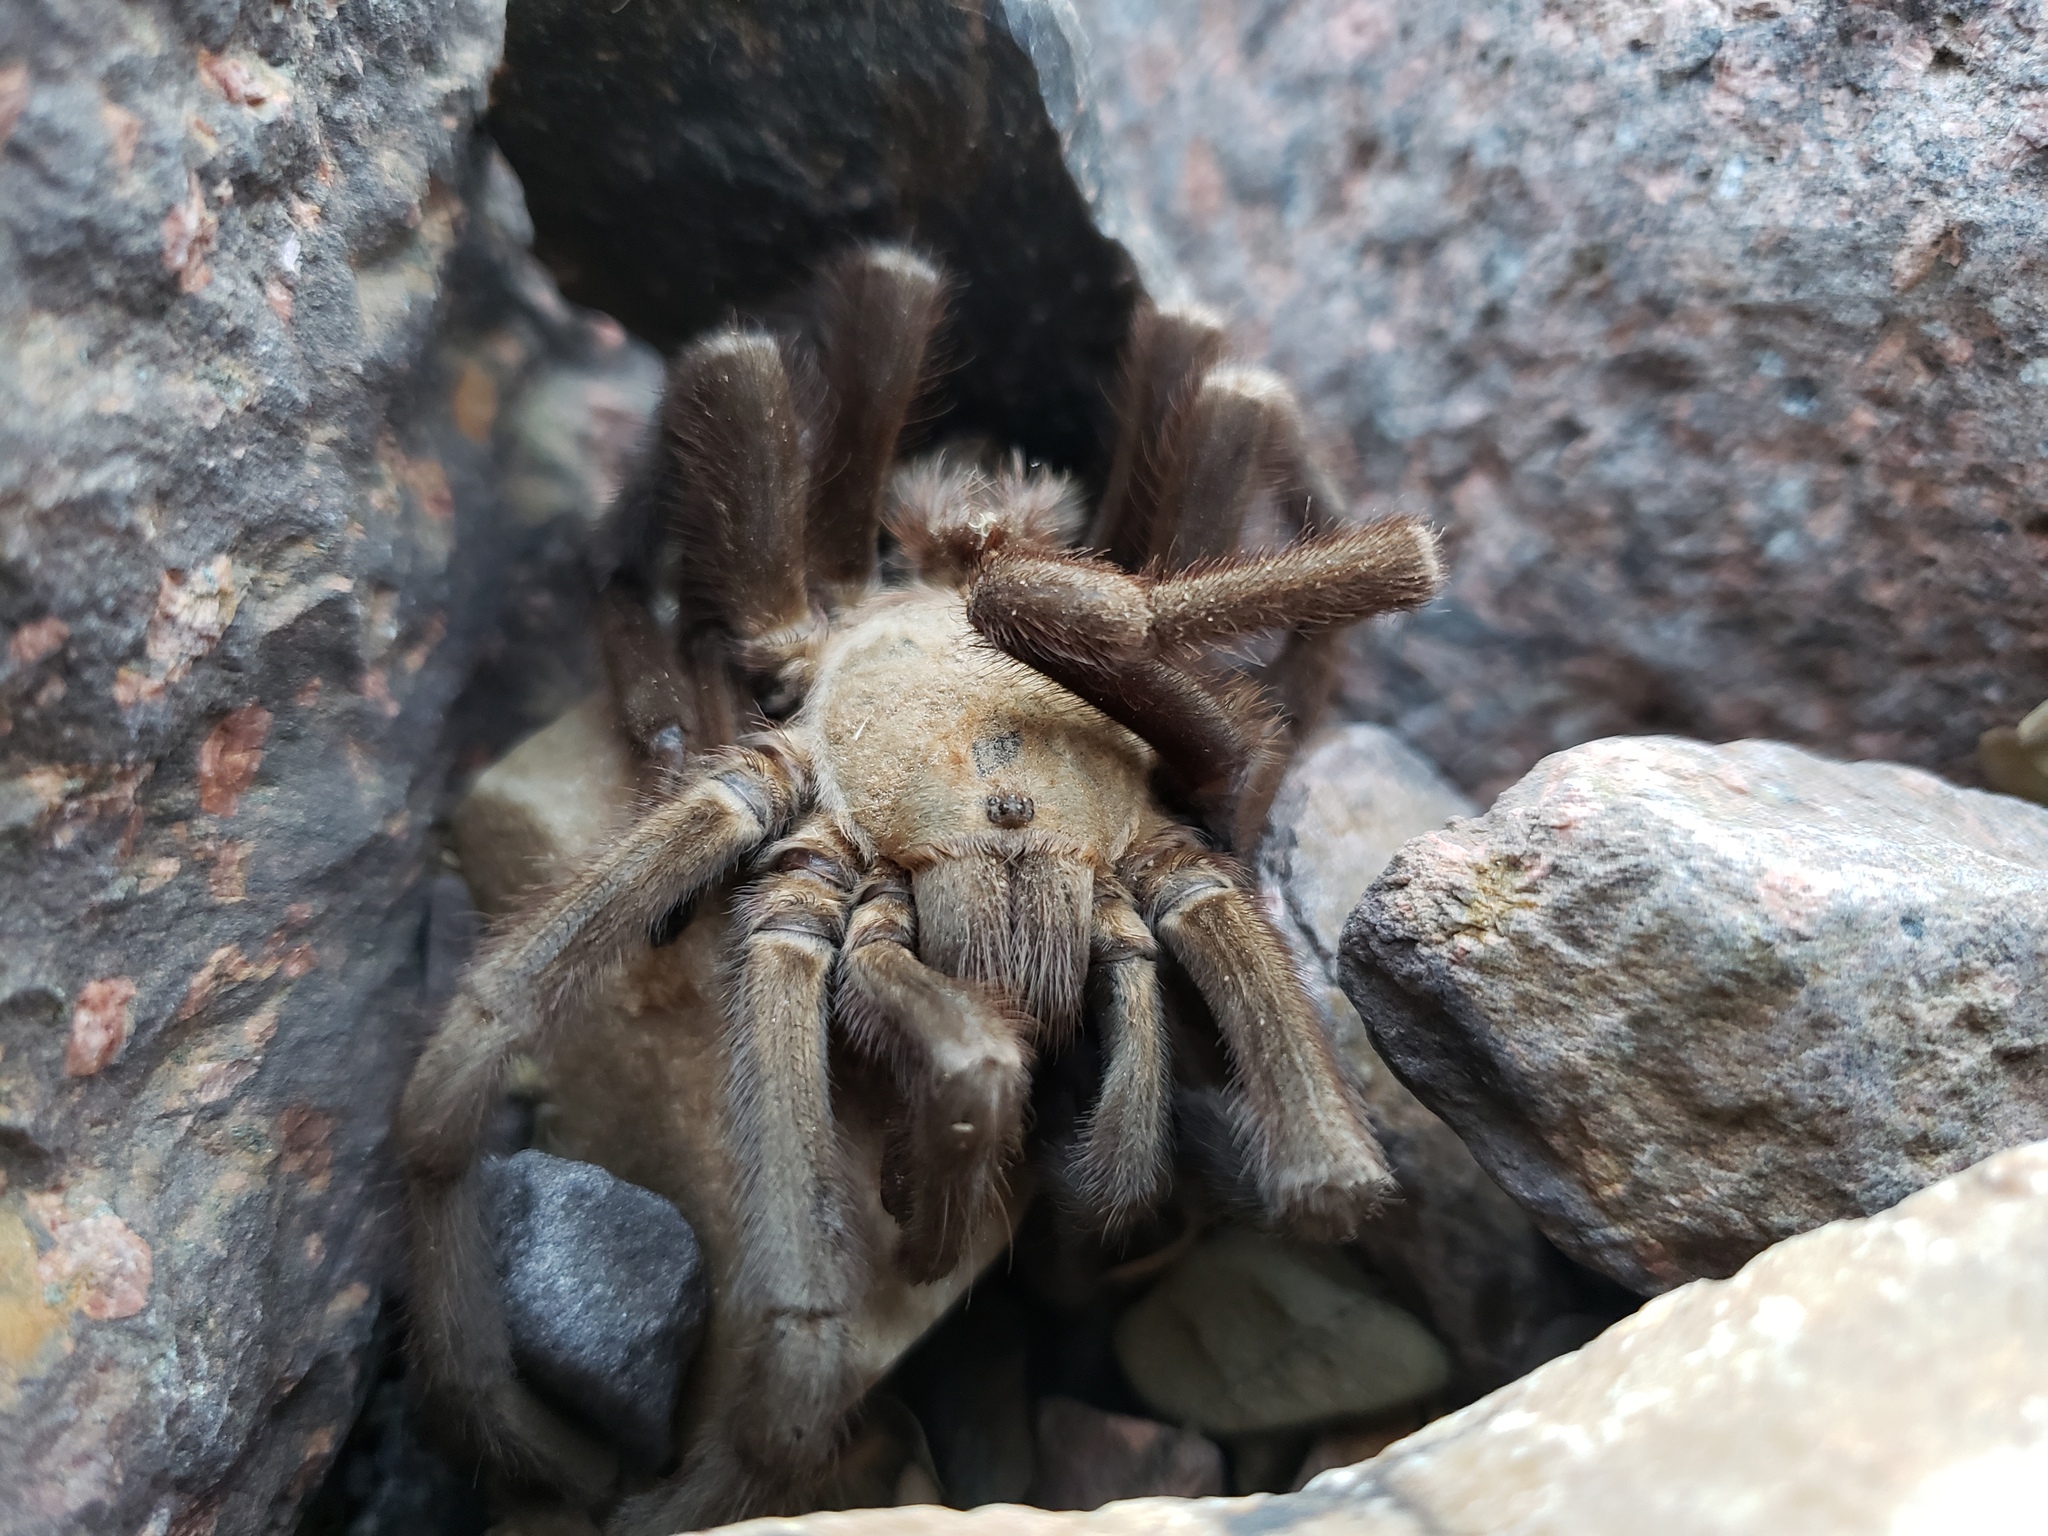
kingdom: Animalia
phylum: Arthropoda
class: Arachnida
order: Araneae
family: Theraphosidae
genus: Aphonopelma
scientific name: Aphonopelma hentzi
